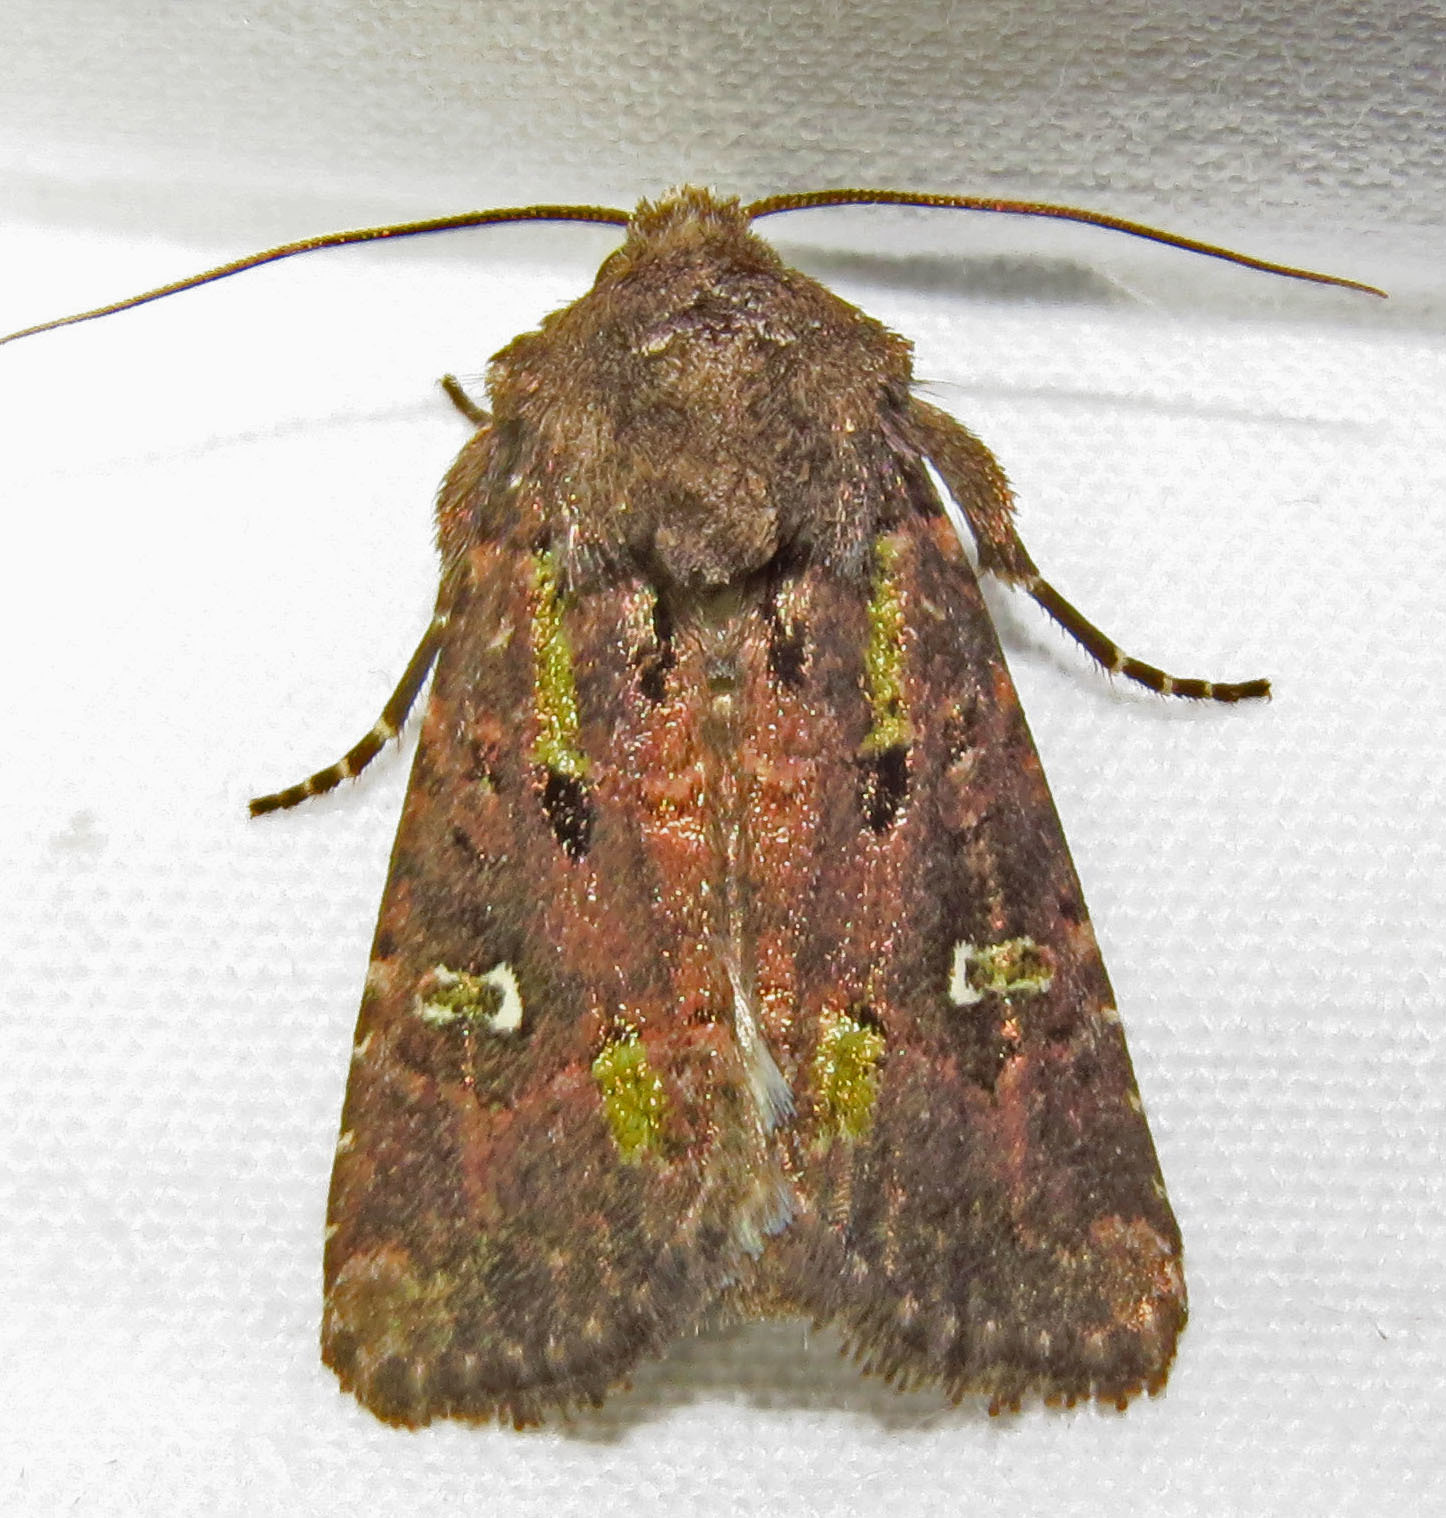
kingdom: Animalia
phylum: Arthropoda
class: Insecta
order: Lepidoptera
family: Noctuidae
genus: Lacinipolia
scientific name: Lacinipolia renigera
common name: Kidney-spotted minor
